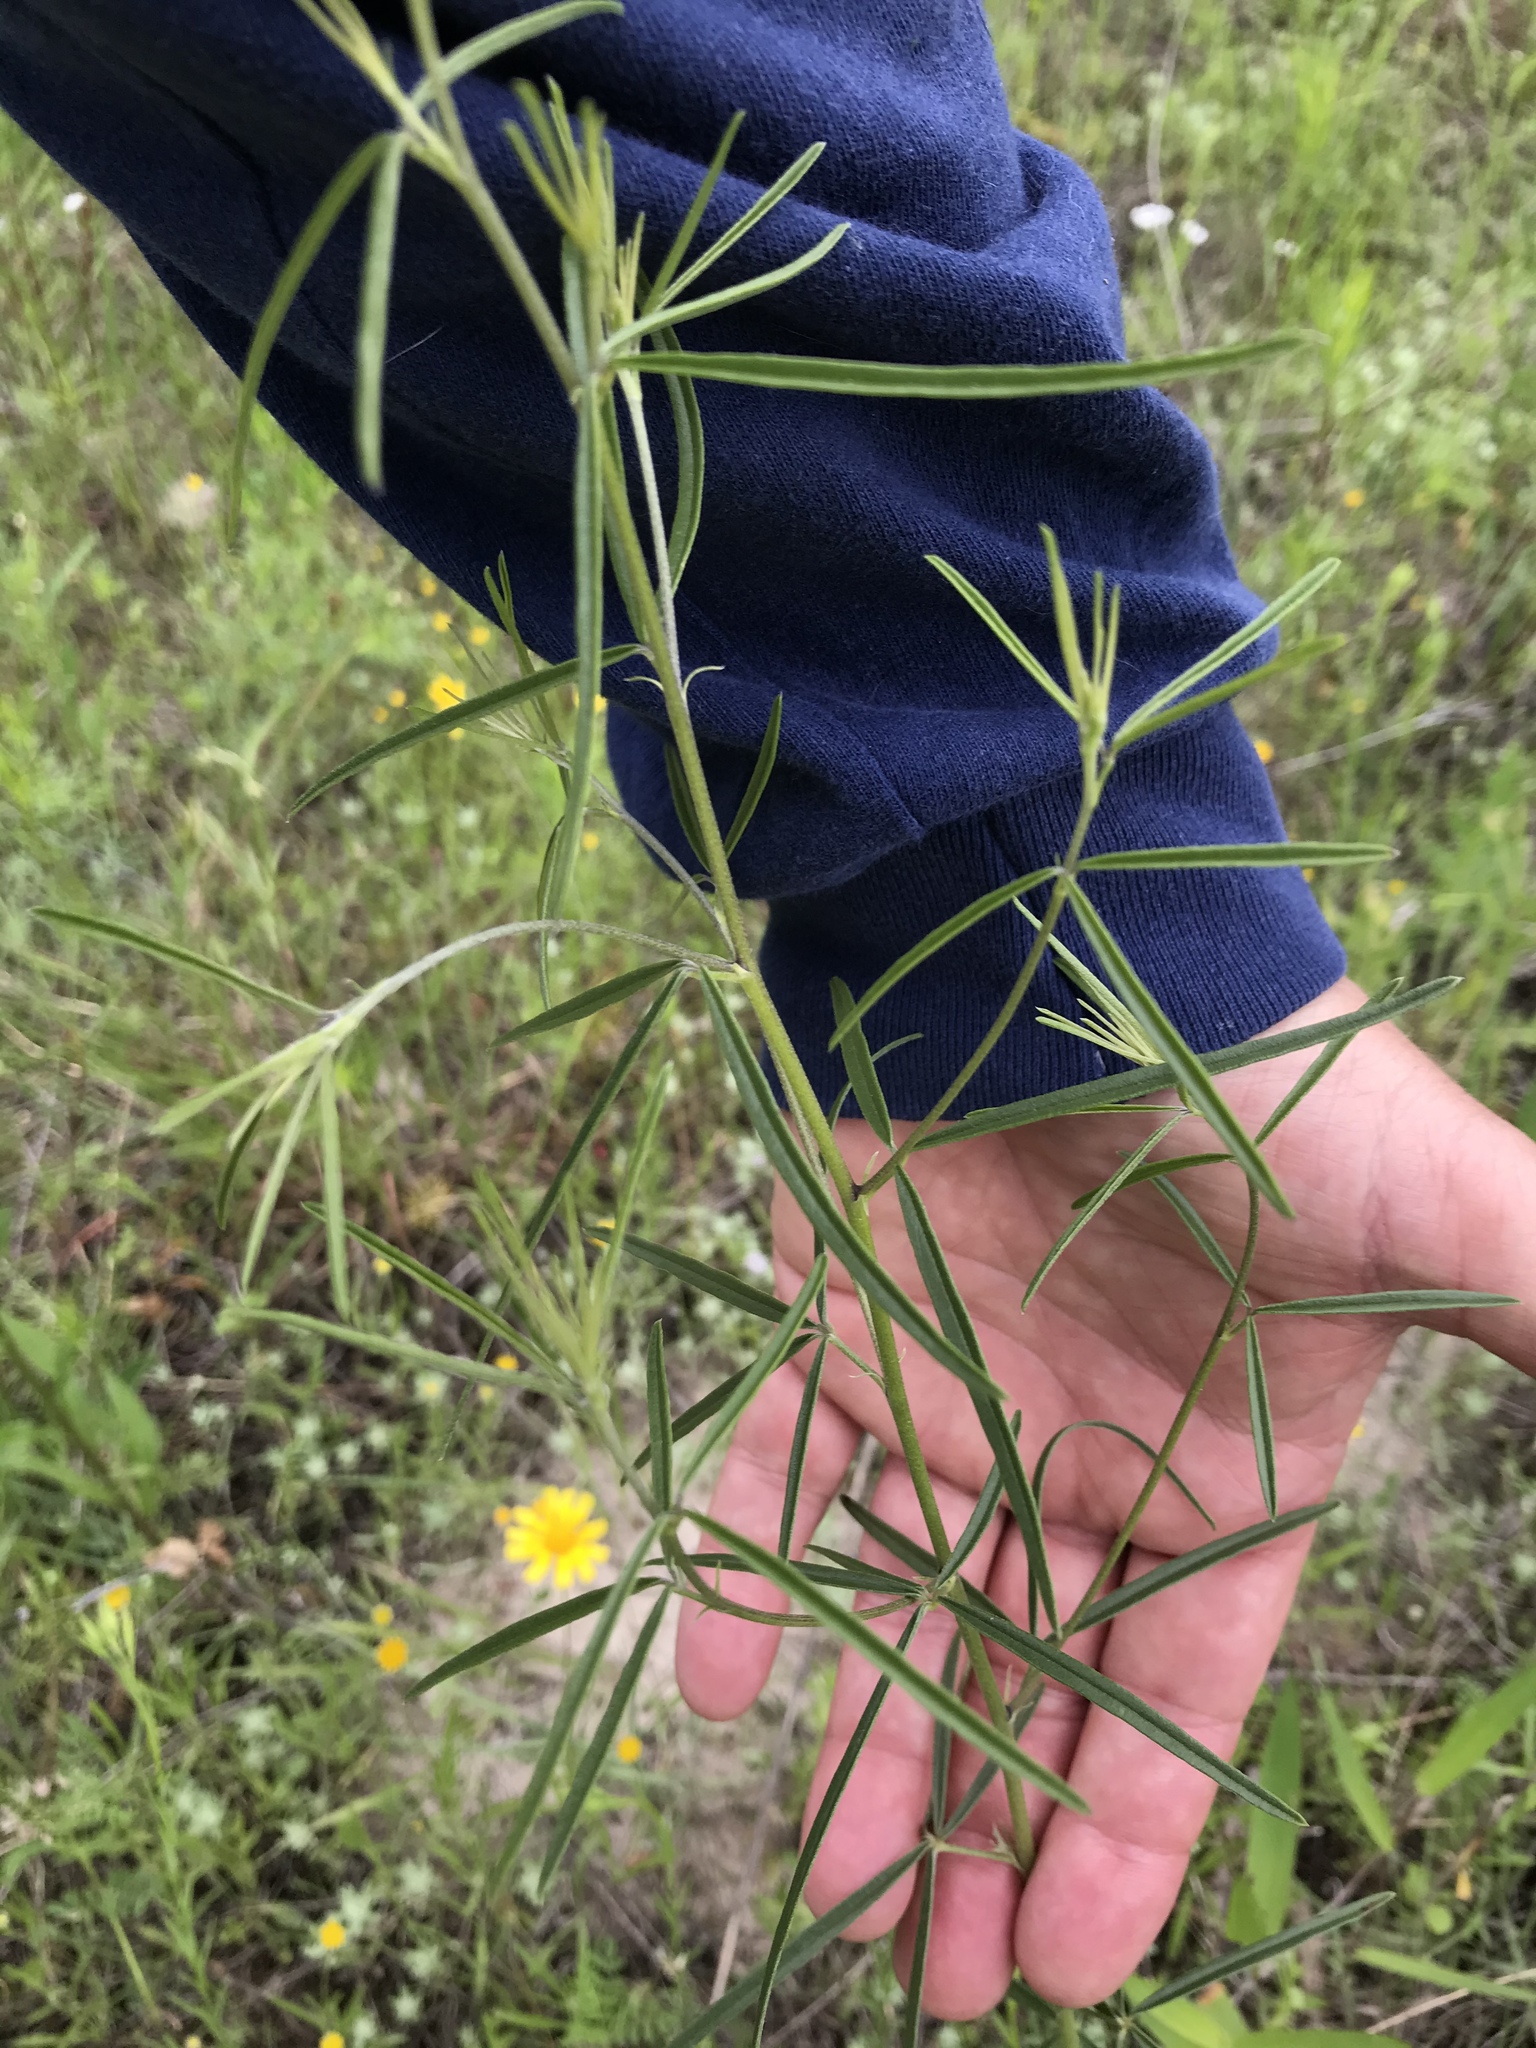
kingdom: Plantae
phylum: Tracheophyta
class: Magnoliopsida
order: Fabales
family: Fabaceae
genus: Pediomelum
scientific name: Pediomelum linearifolium
